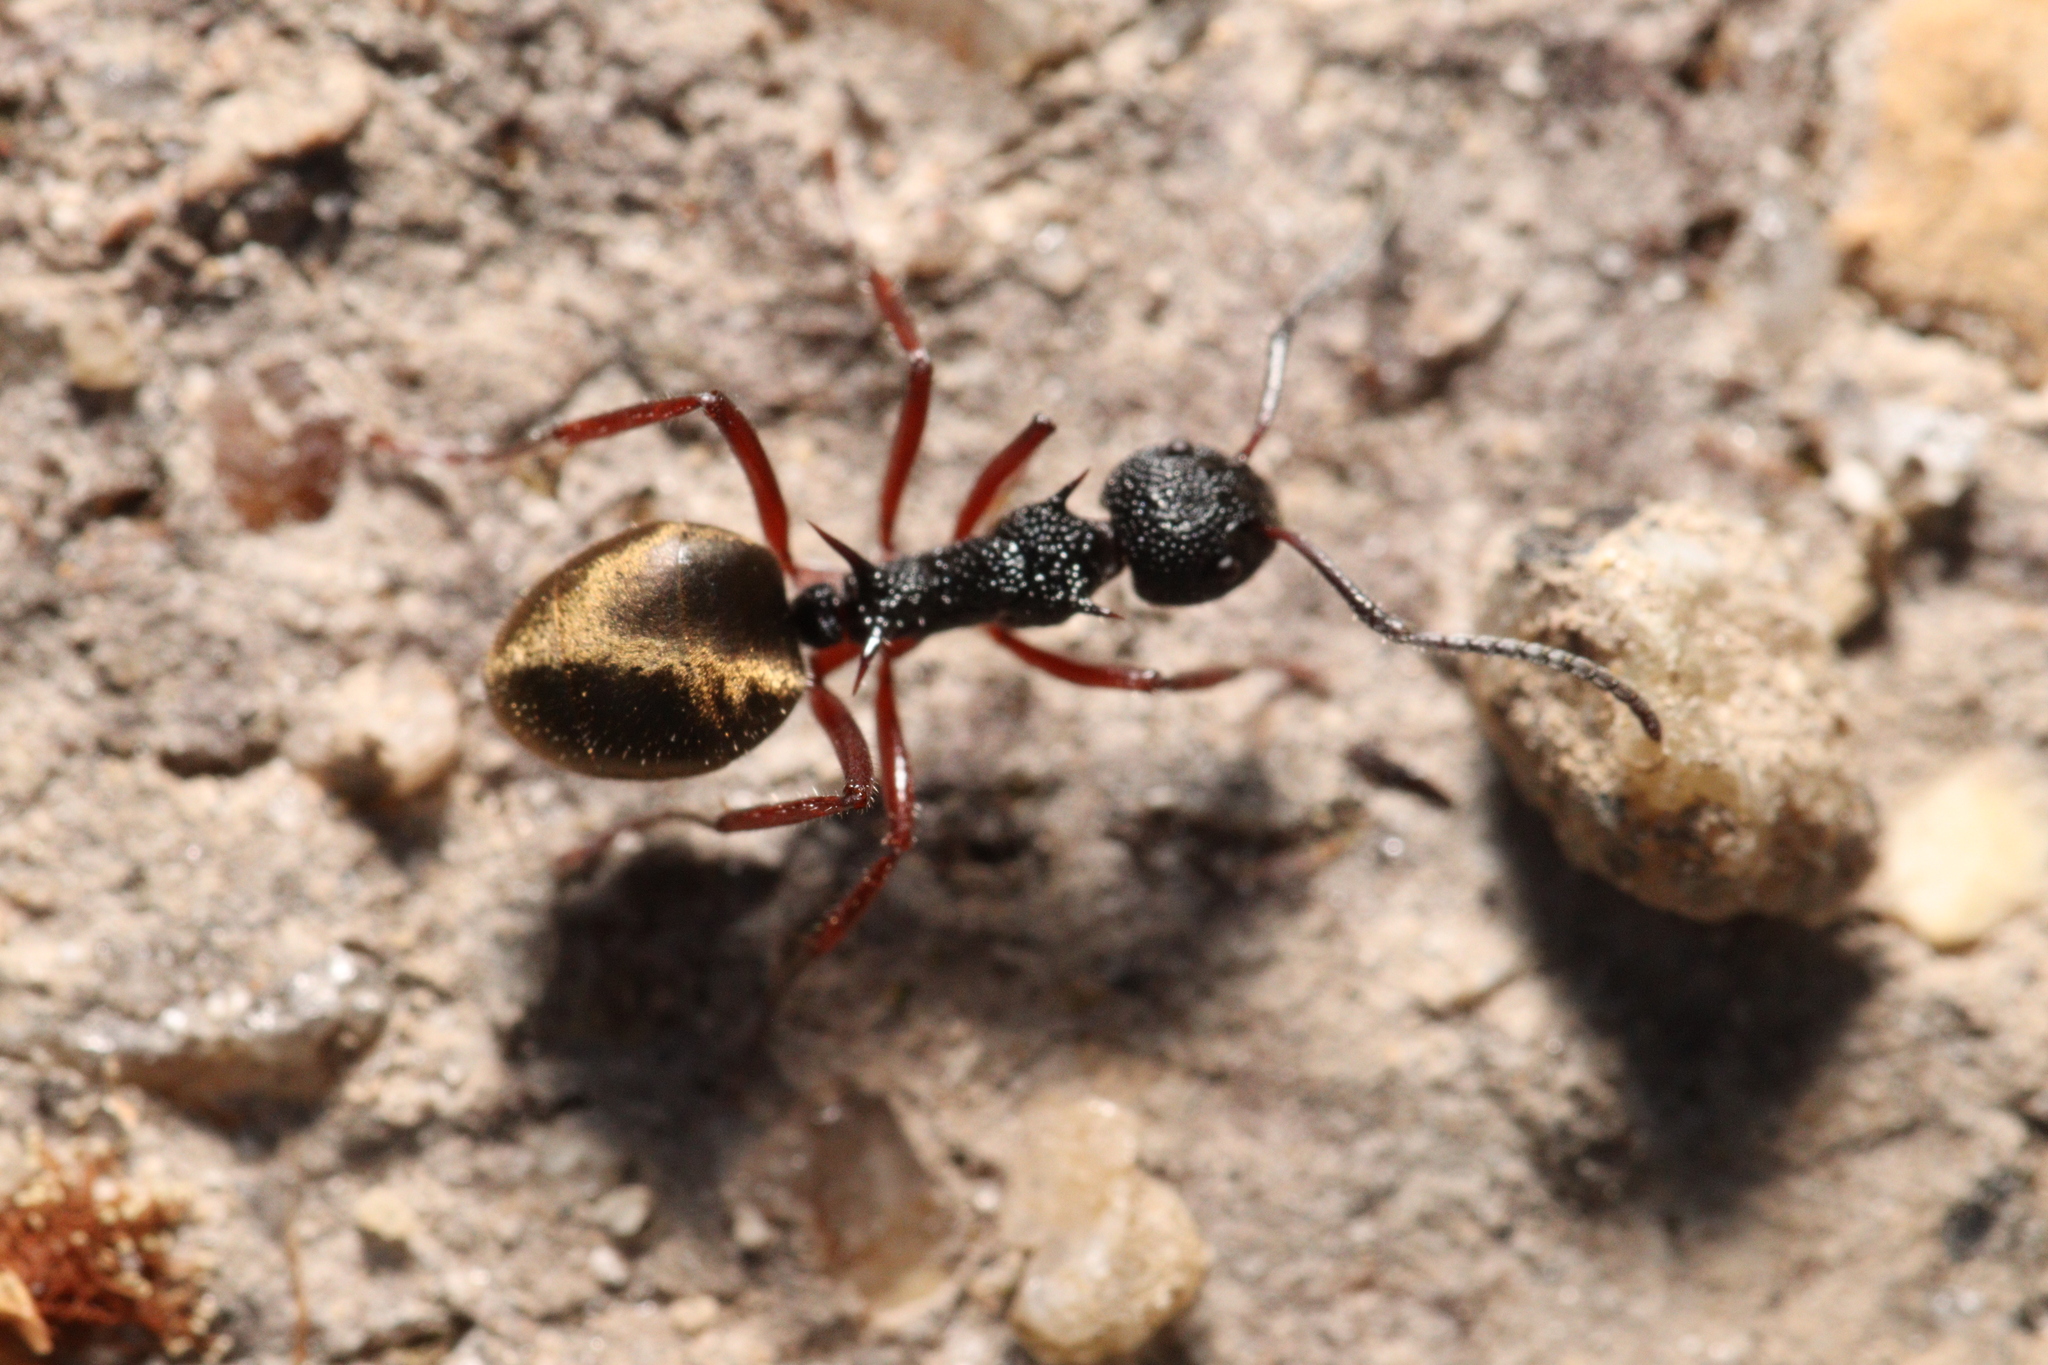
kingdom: Animalia
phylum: Arthropoda
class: Insecta
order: Hymenoptera
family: Formicidae
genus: Dolichoderus
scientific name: Dolichoderus doriae
